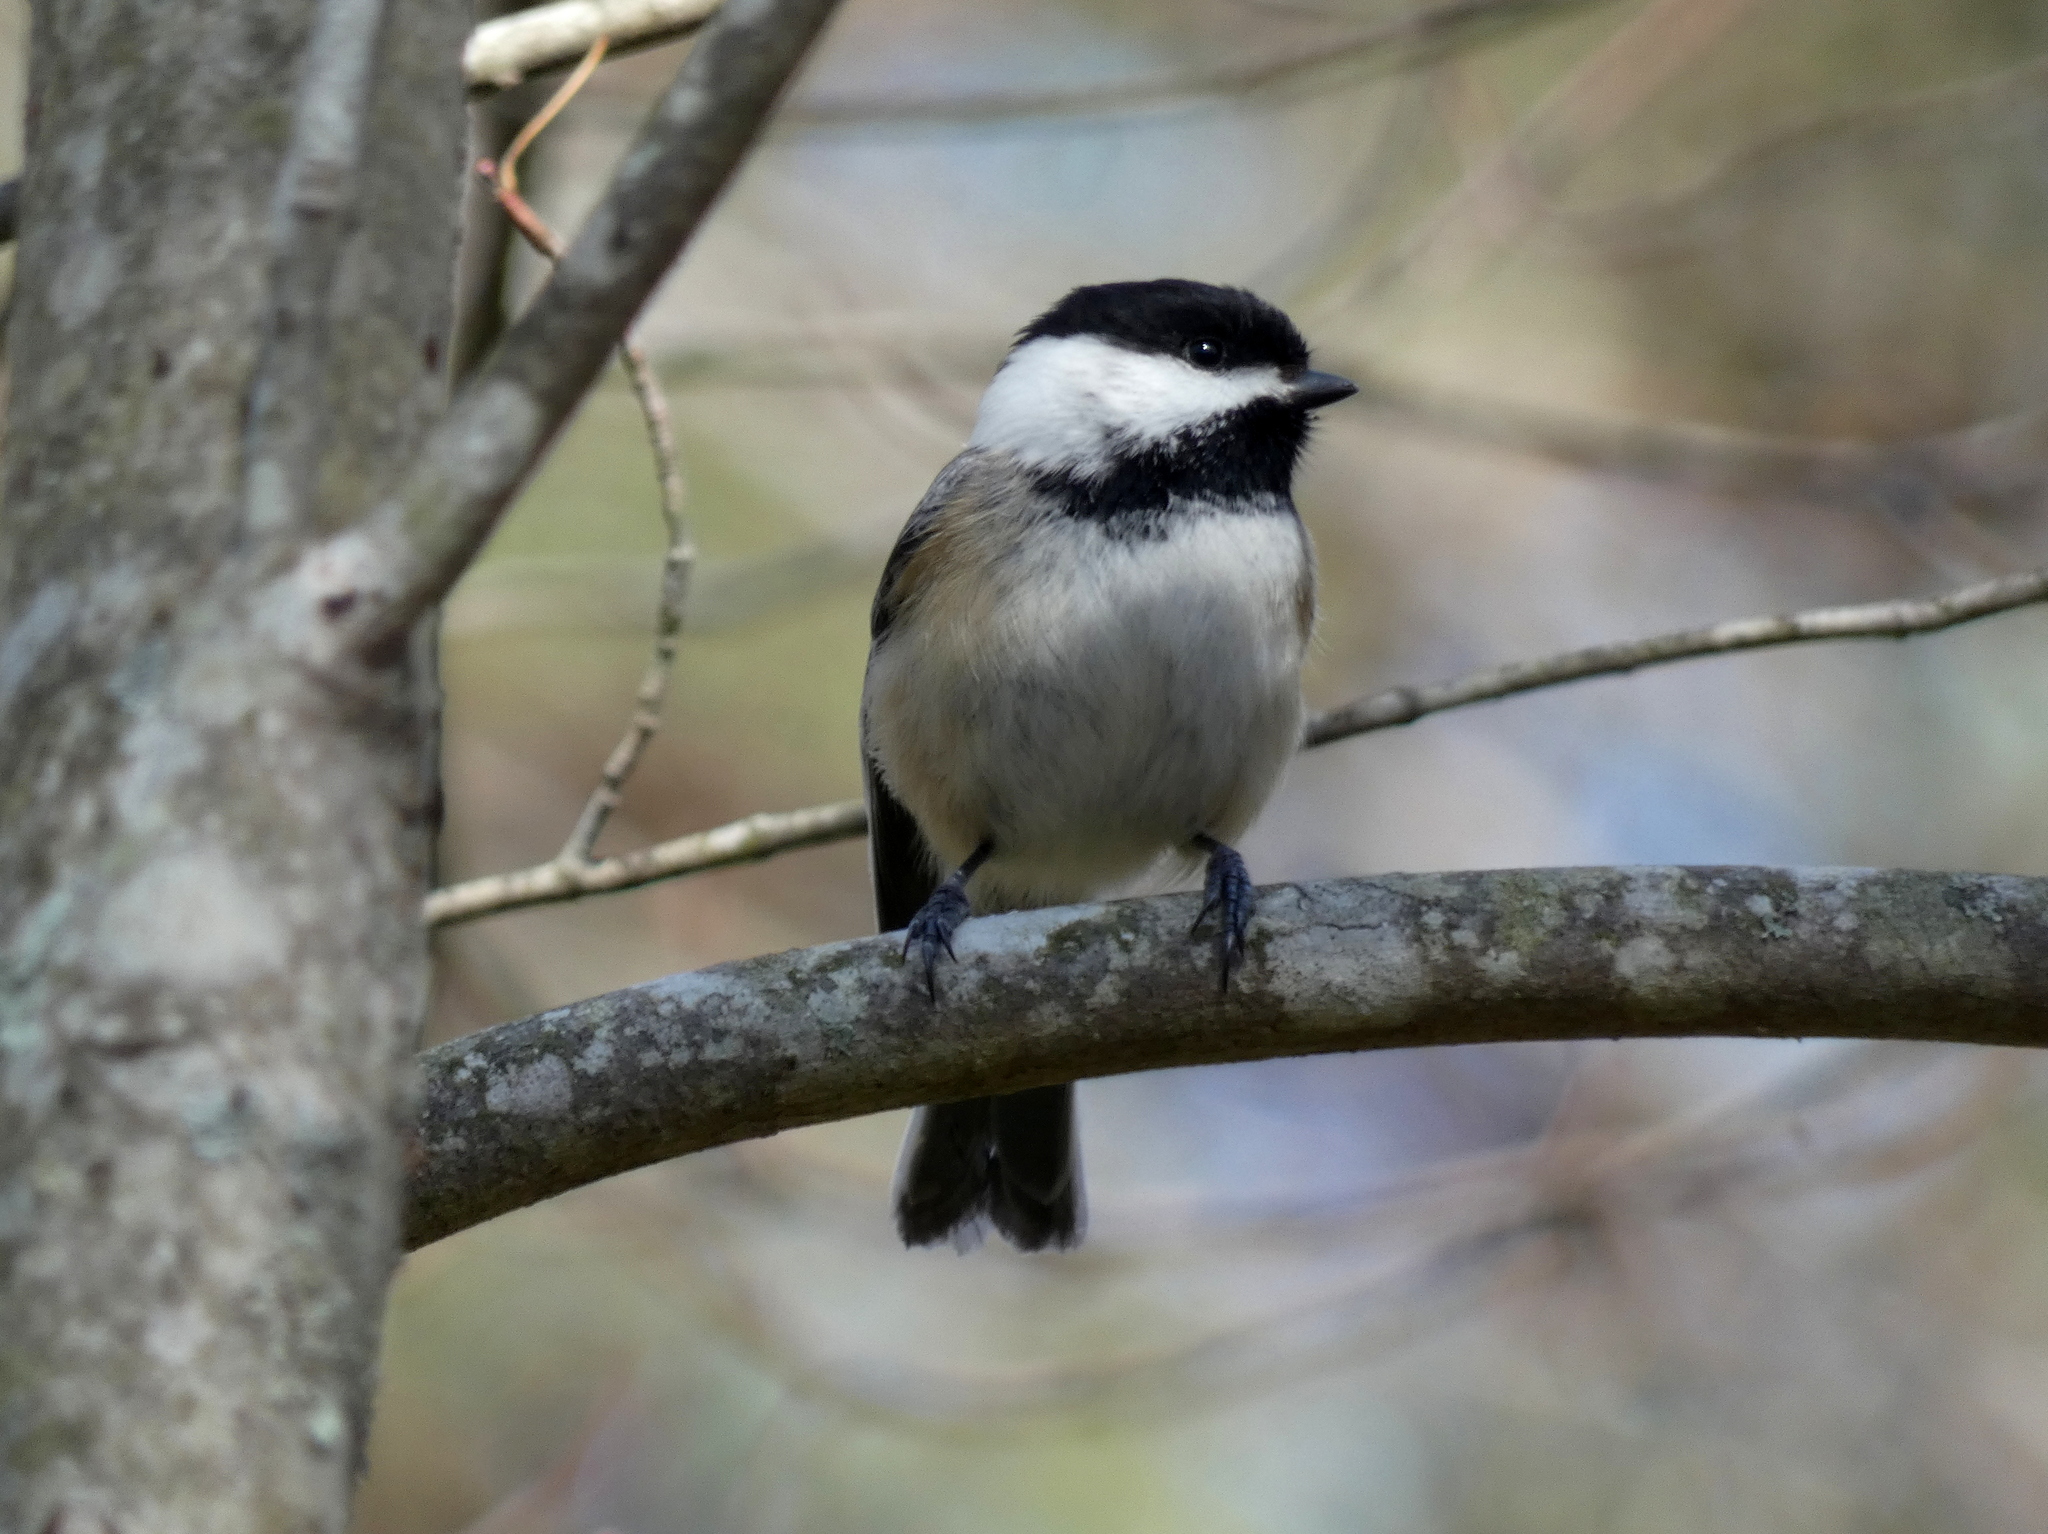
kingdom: Animalia
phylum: Chordata
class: Aves
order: Passeriformes
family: Paridae
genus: Poecile
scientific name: Poecile atricapillus
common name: Black-capped chickadee
